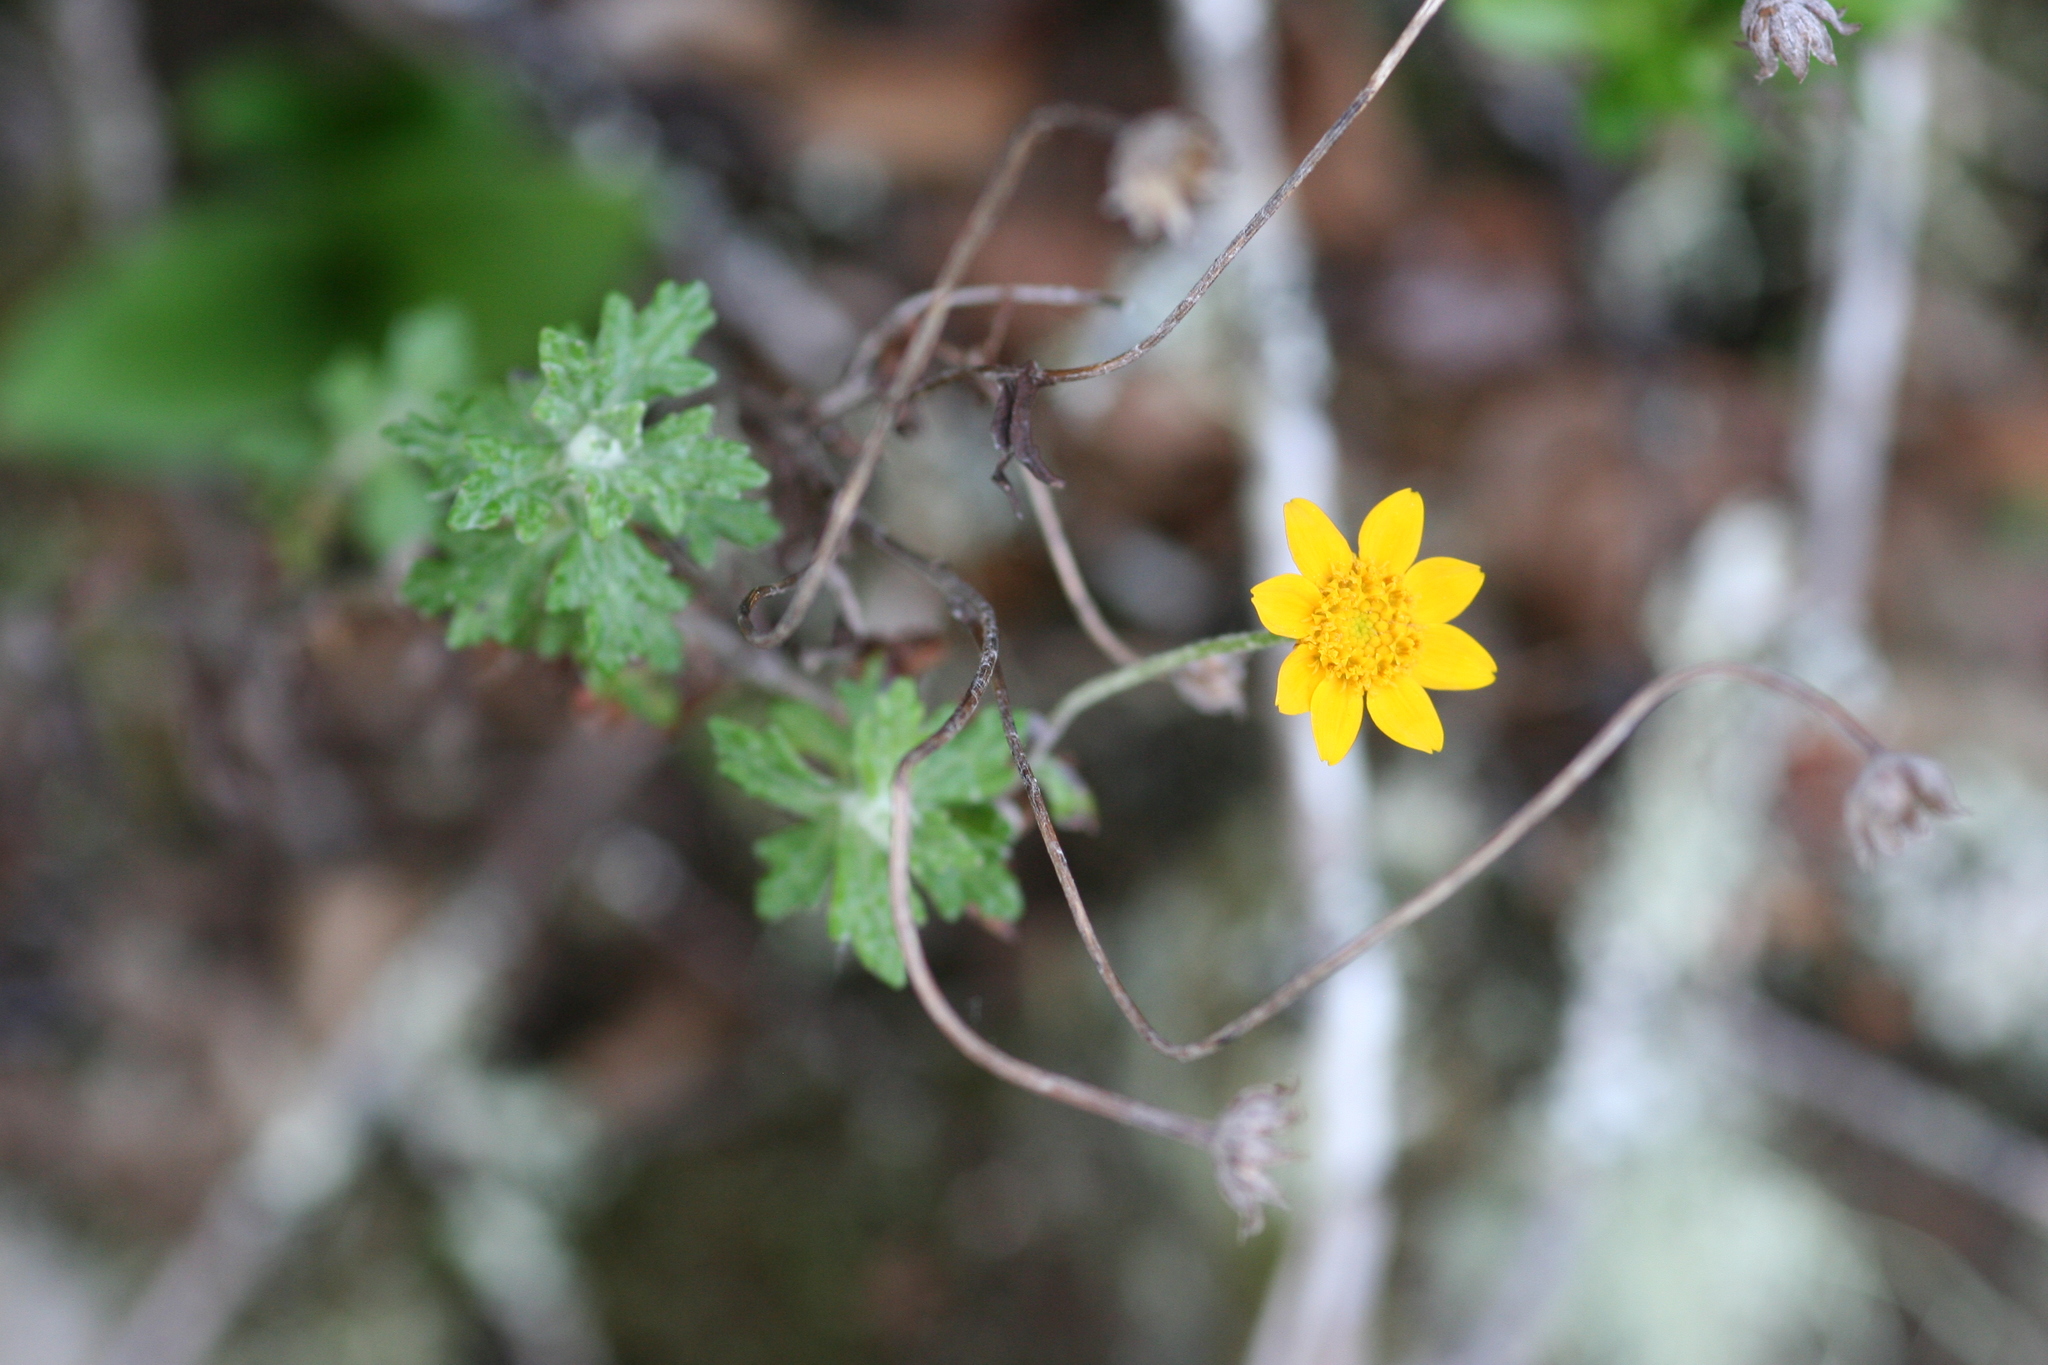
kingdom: Plantae
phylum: Tracheophyta
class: Magnoliopsida
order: Asterales
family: Asteraceae
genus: Eriophyllum
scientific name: Eriophyllum lanatum
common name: Common woolly-sunflower
